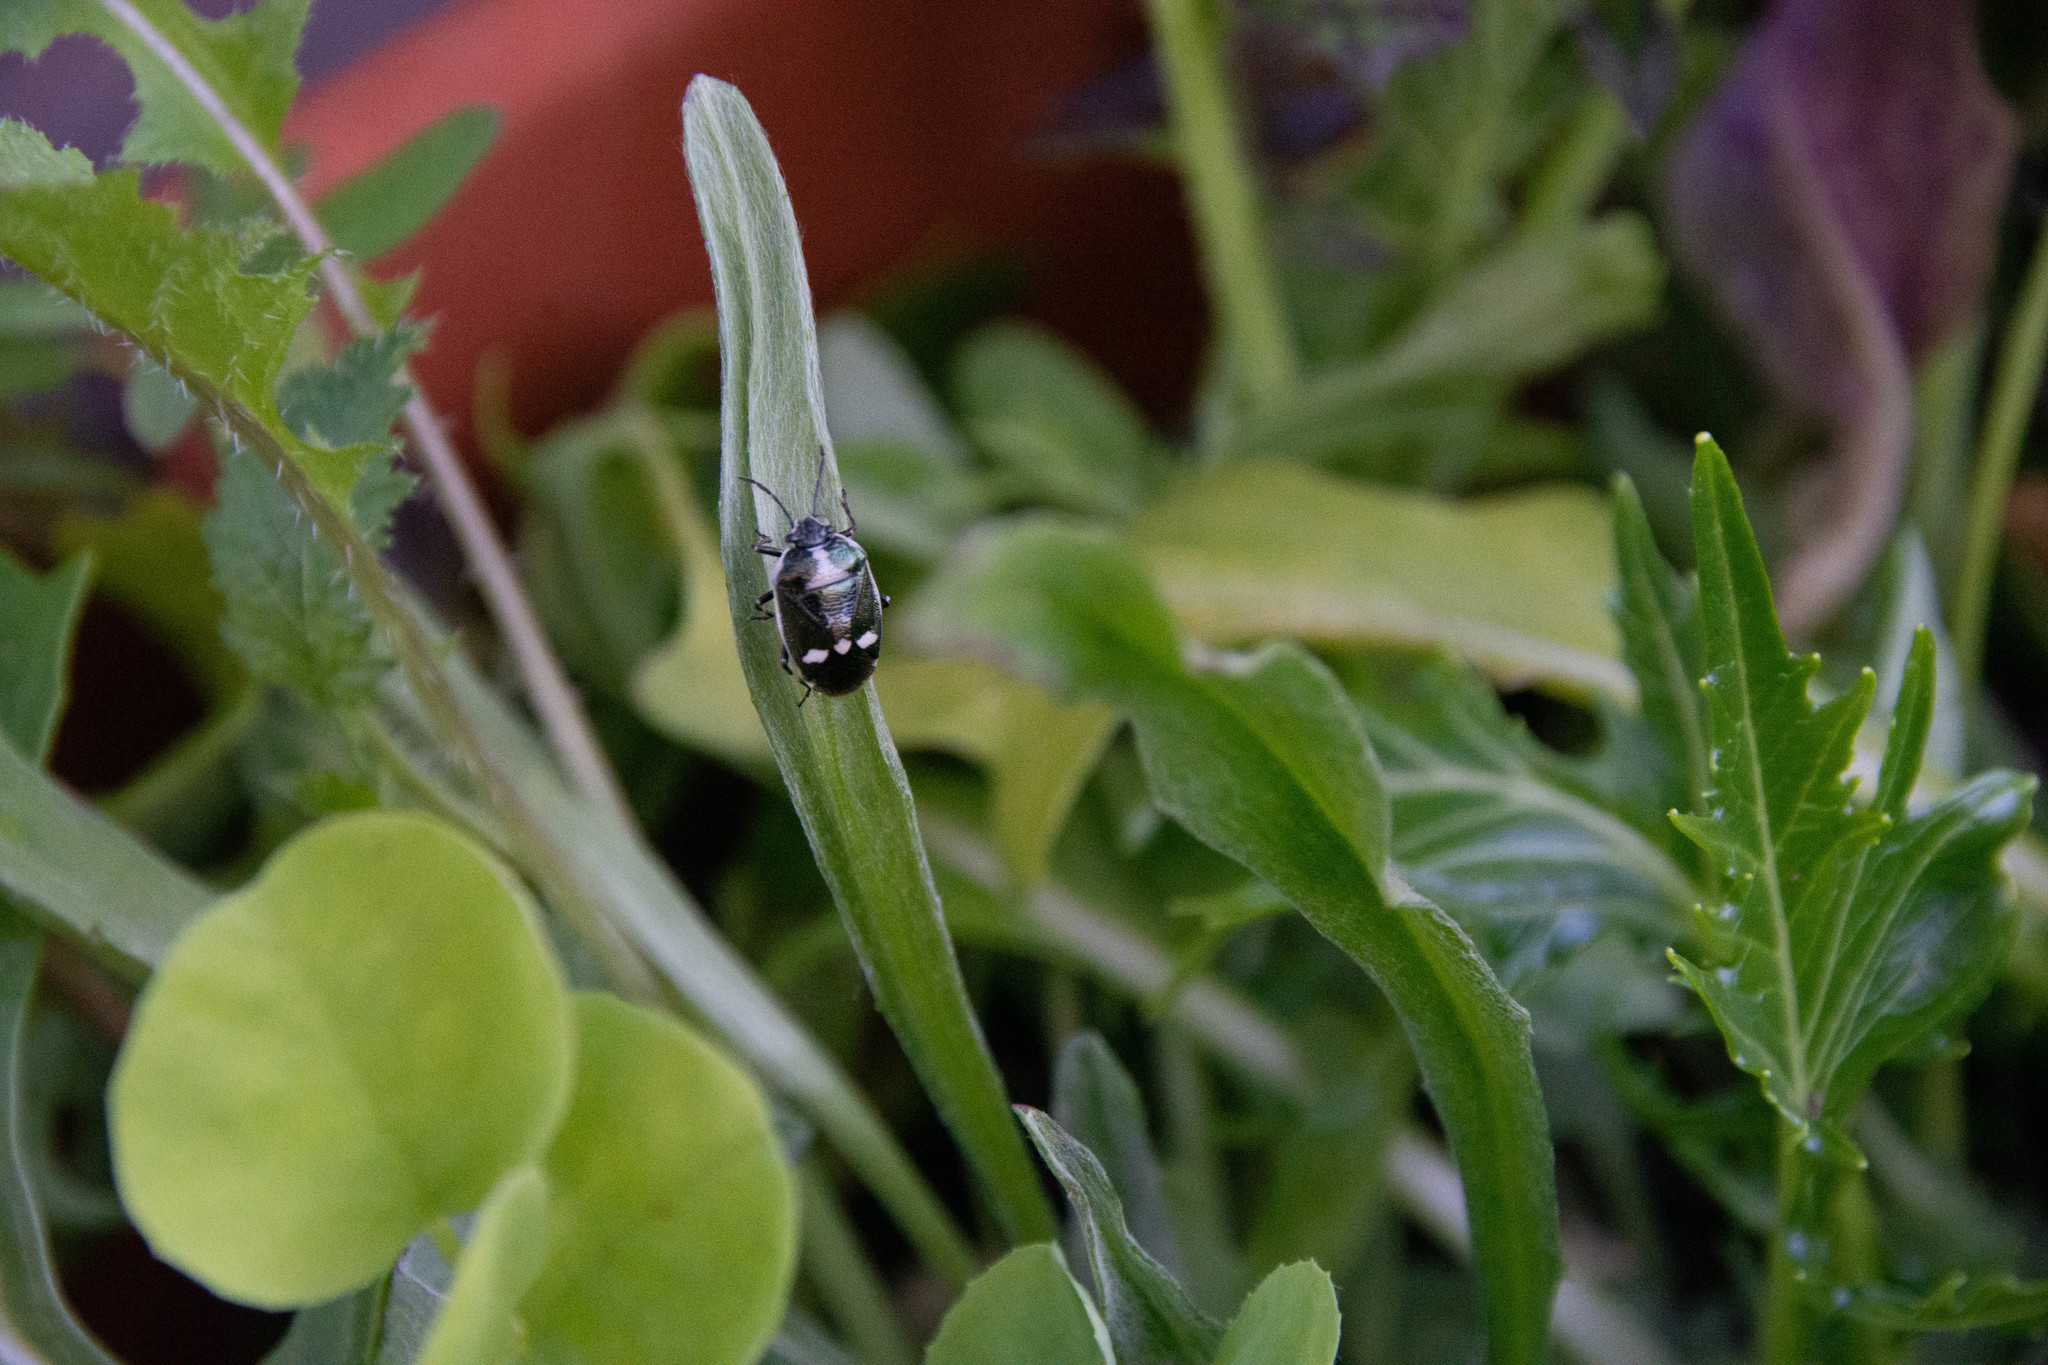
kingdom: Animalia
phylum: Arthropoda
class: Insecta
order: Hemiptera
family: Pentatomidae
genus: Eurydema
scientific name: Eurydema oleracea
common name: Cabbage bug
